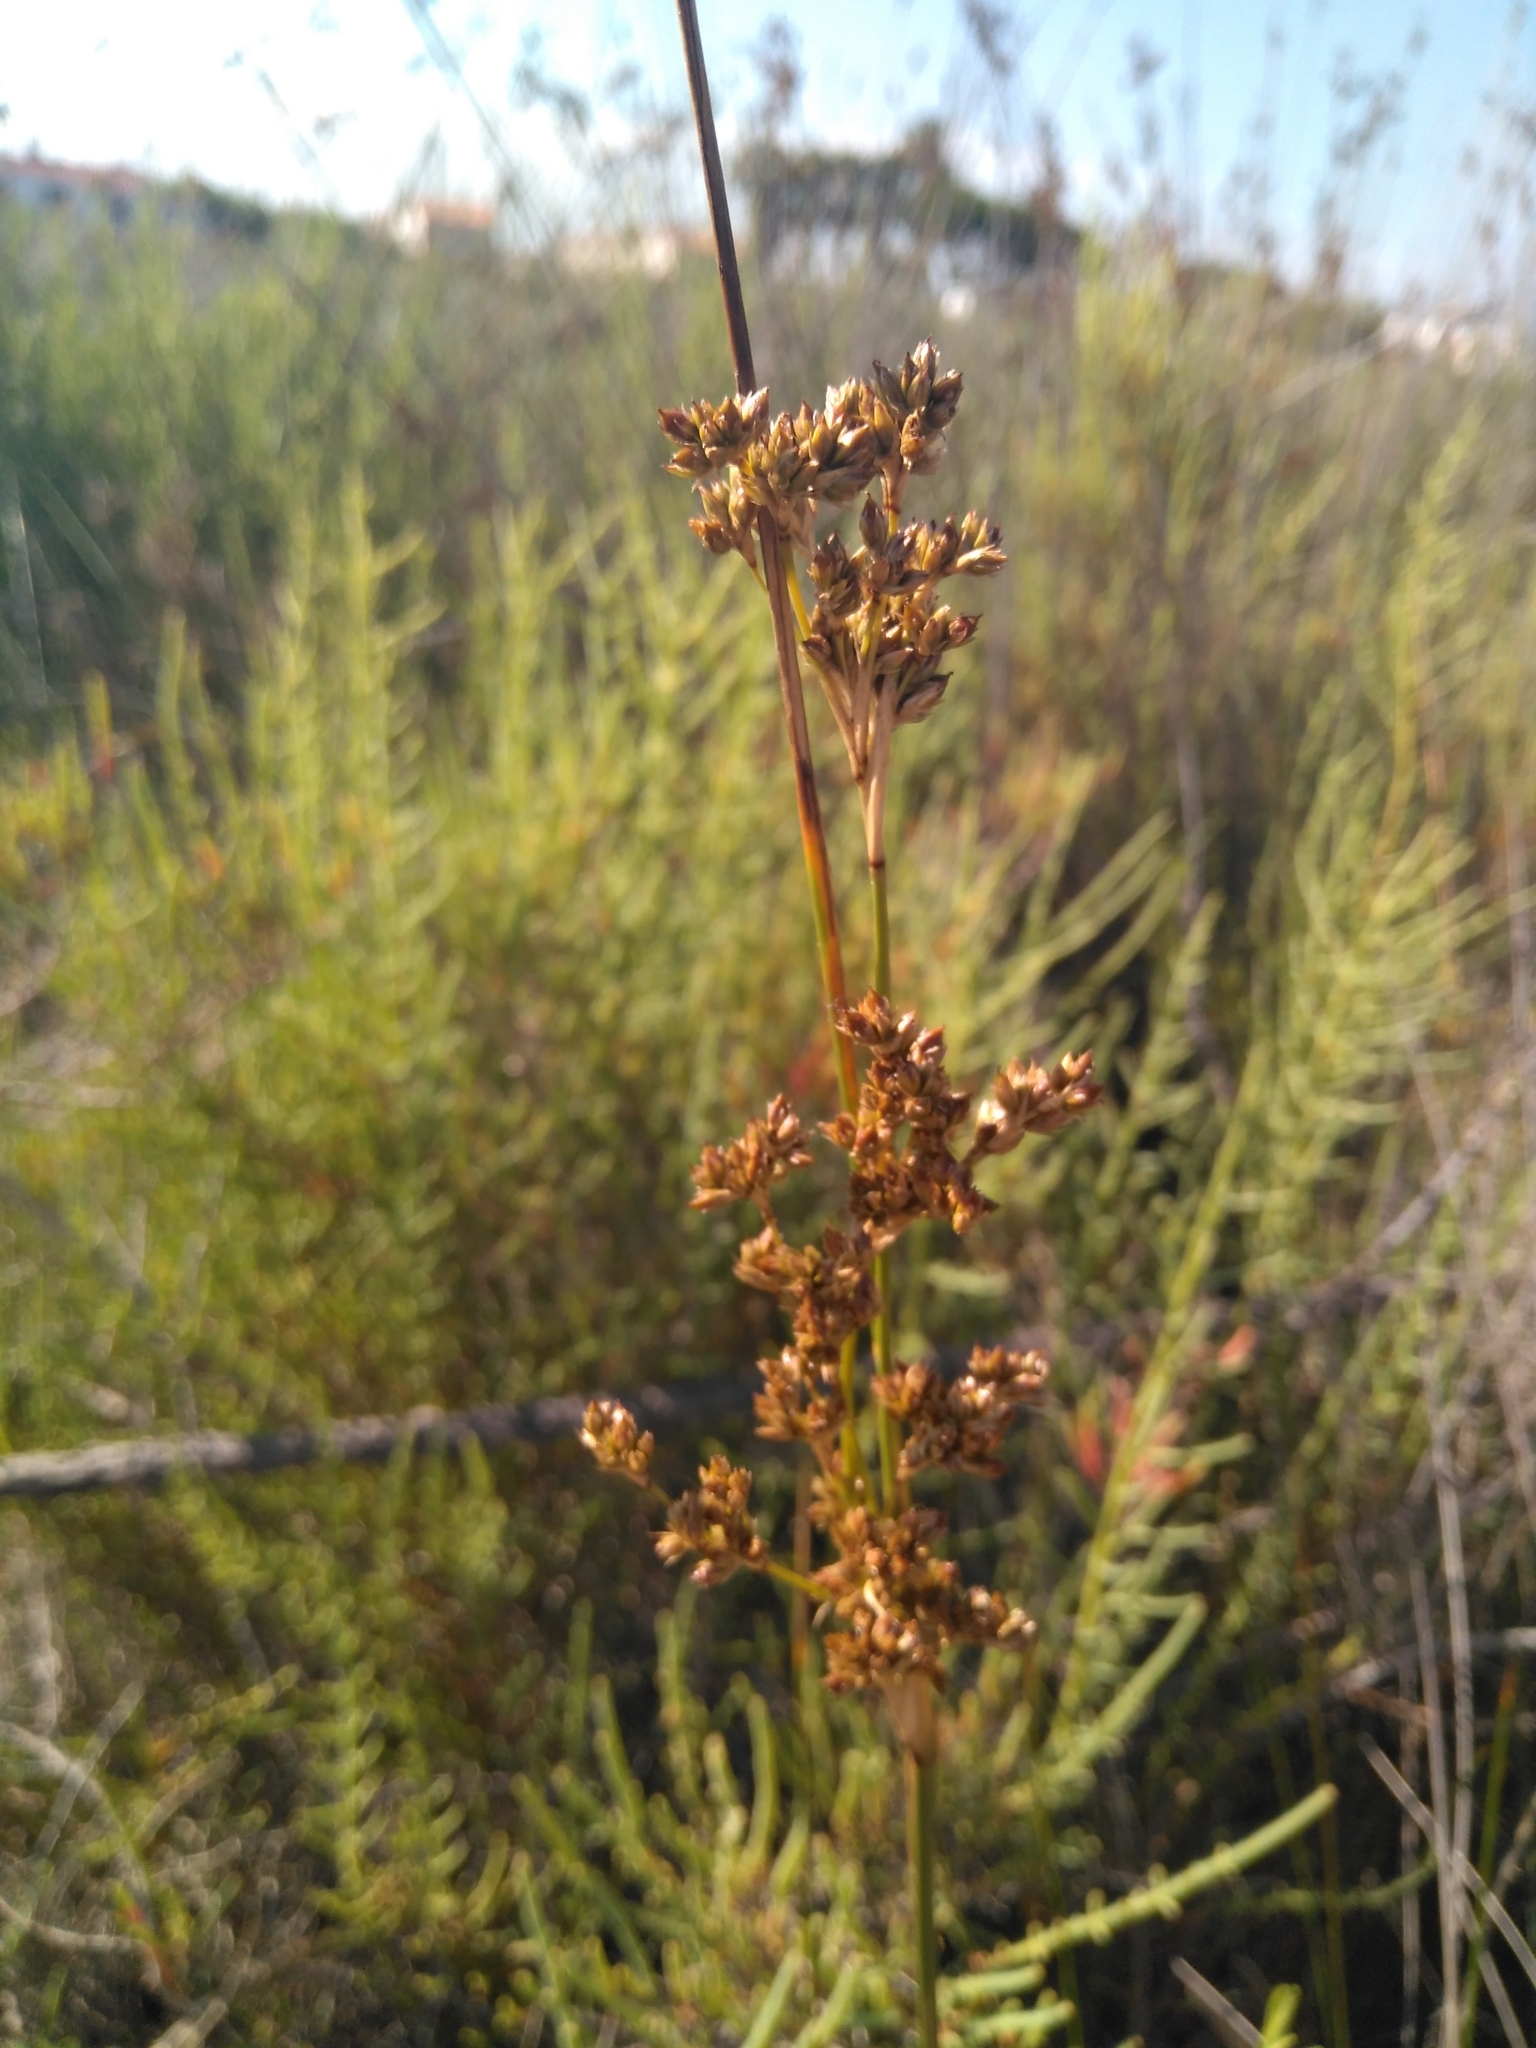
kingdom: Plantae
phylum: Tracheophyta
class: Liliopsida
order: Poales
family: Juncaceae
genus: Juncus
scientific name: Juncus acutus
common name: Sharp rush
